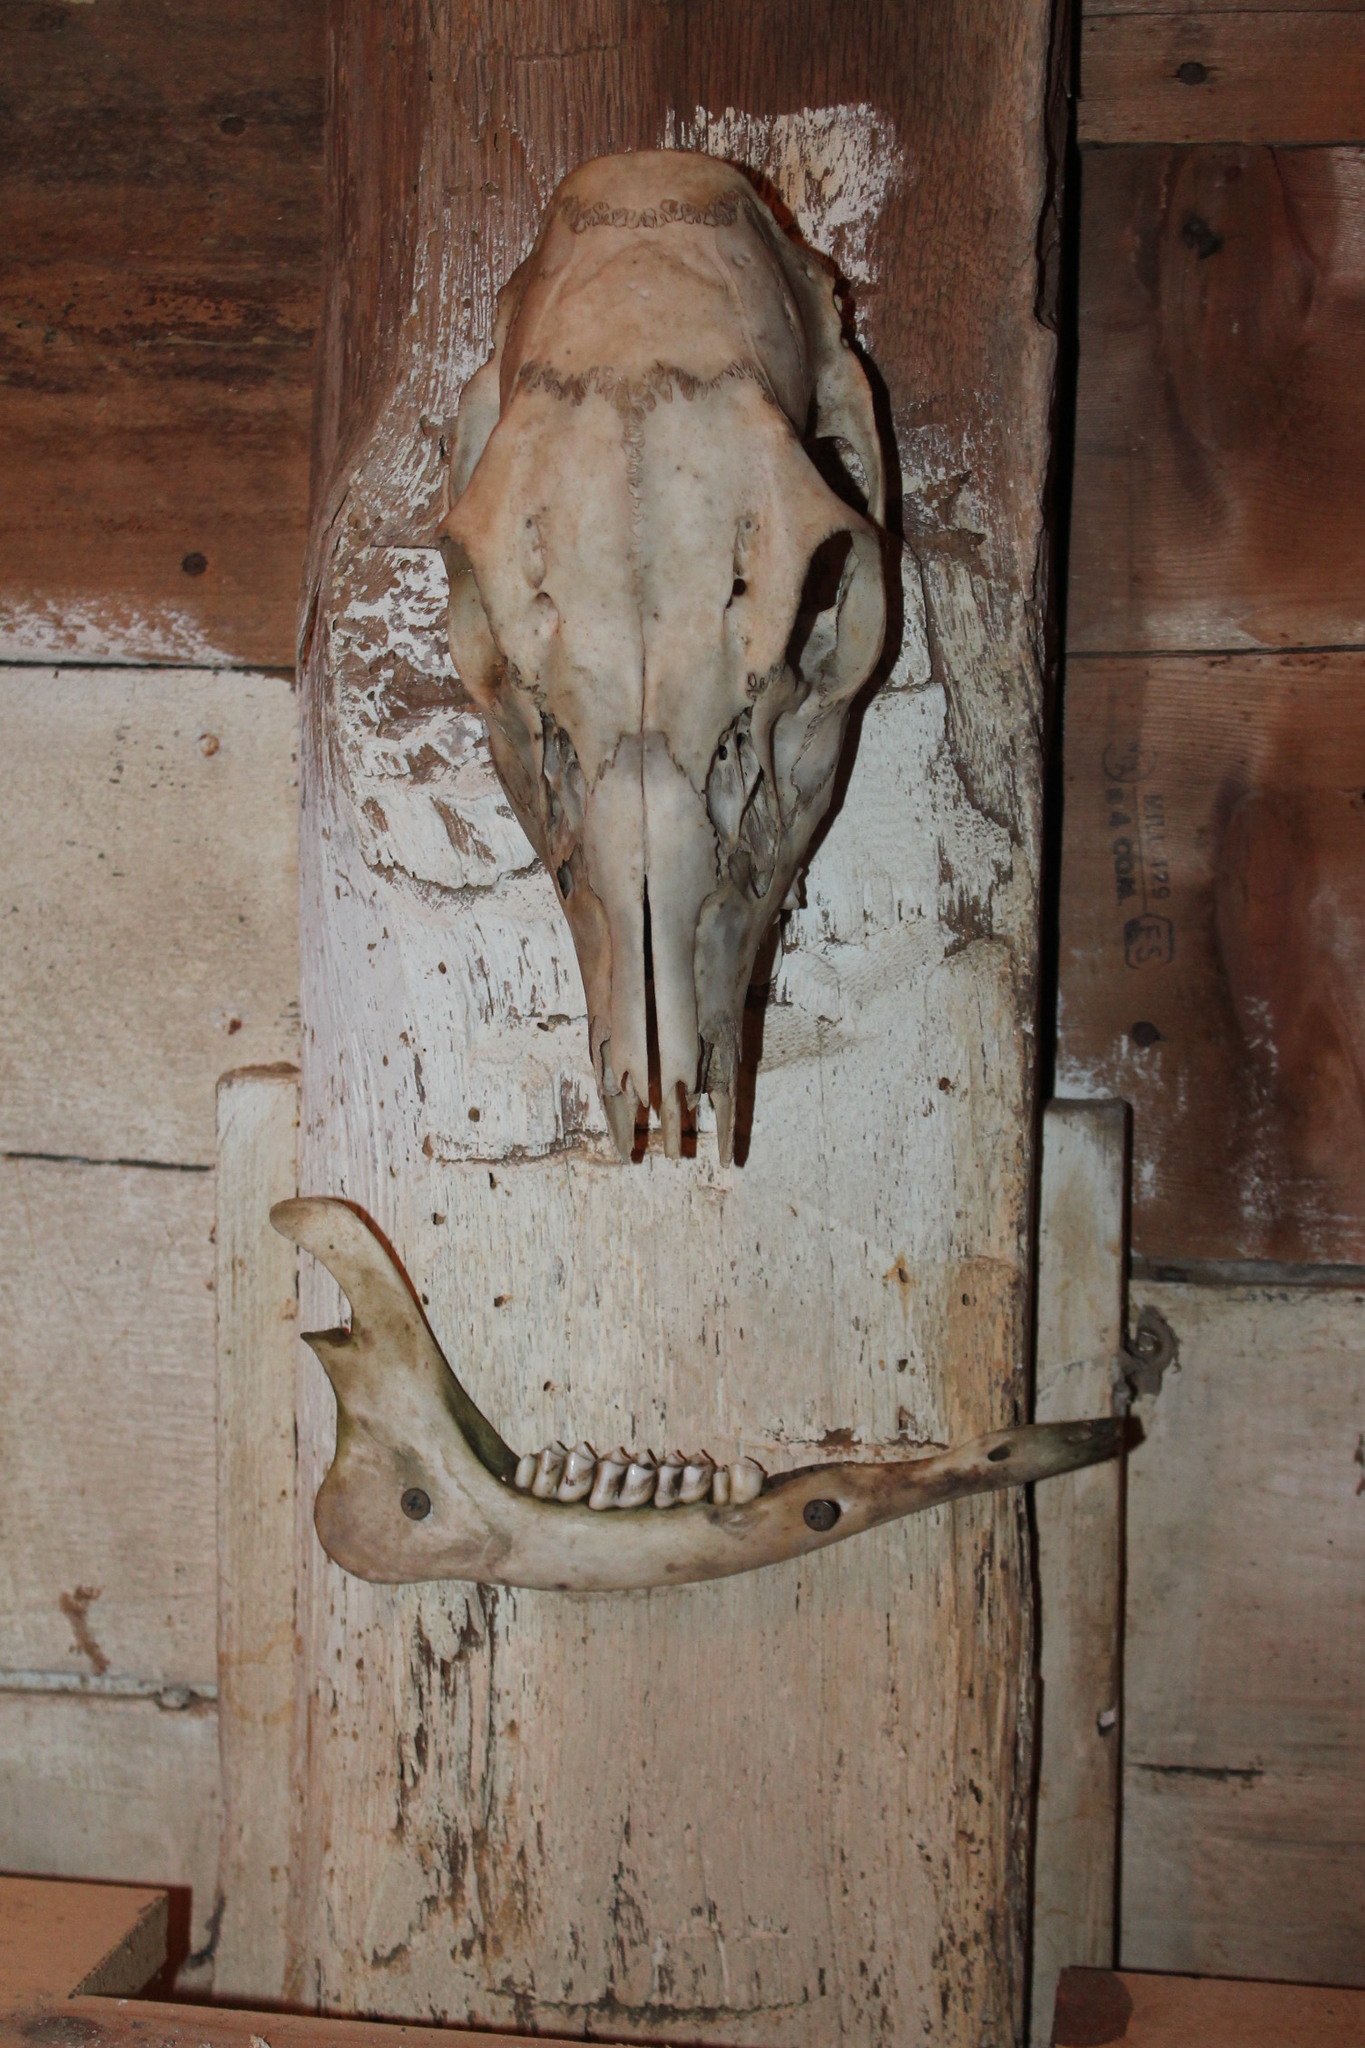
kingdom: Animalia
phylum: Chordata
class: Mammalia
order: Artiodactyla
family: Cervidae
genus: Odocoileus
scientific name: Odocoileus virginianus
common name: White-tailed deer
